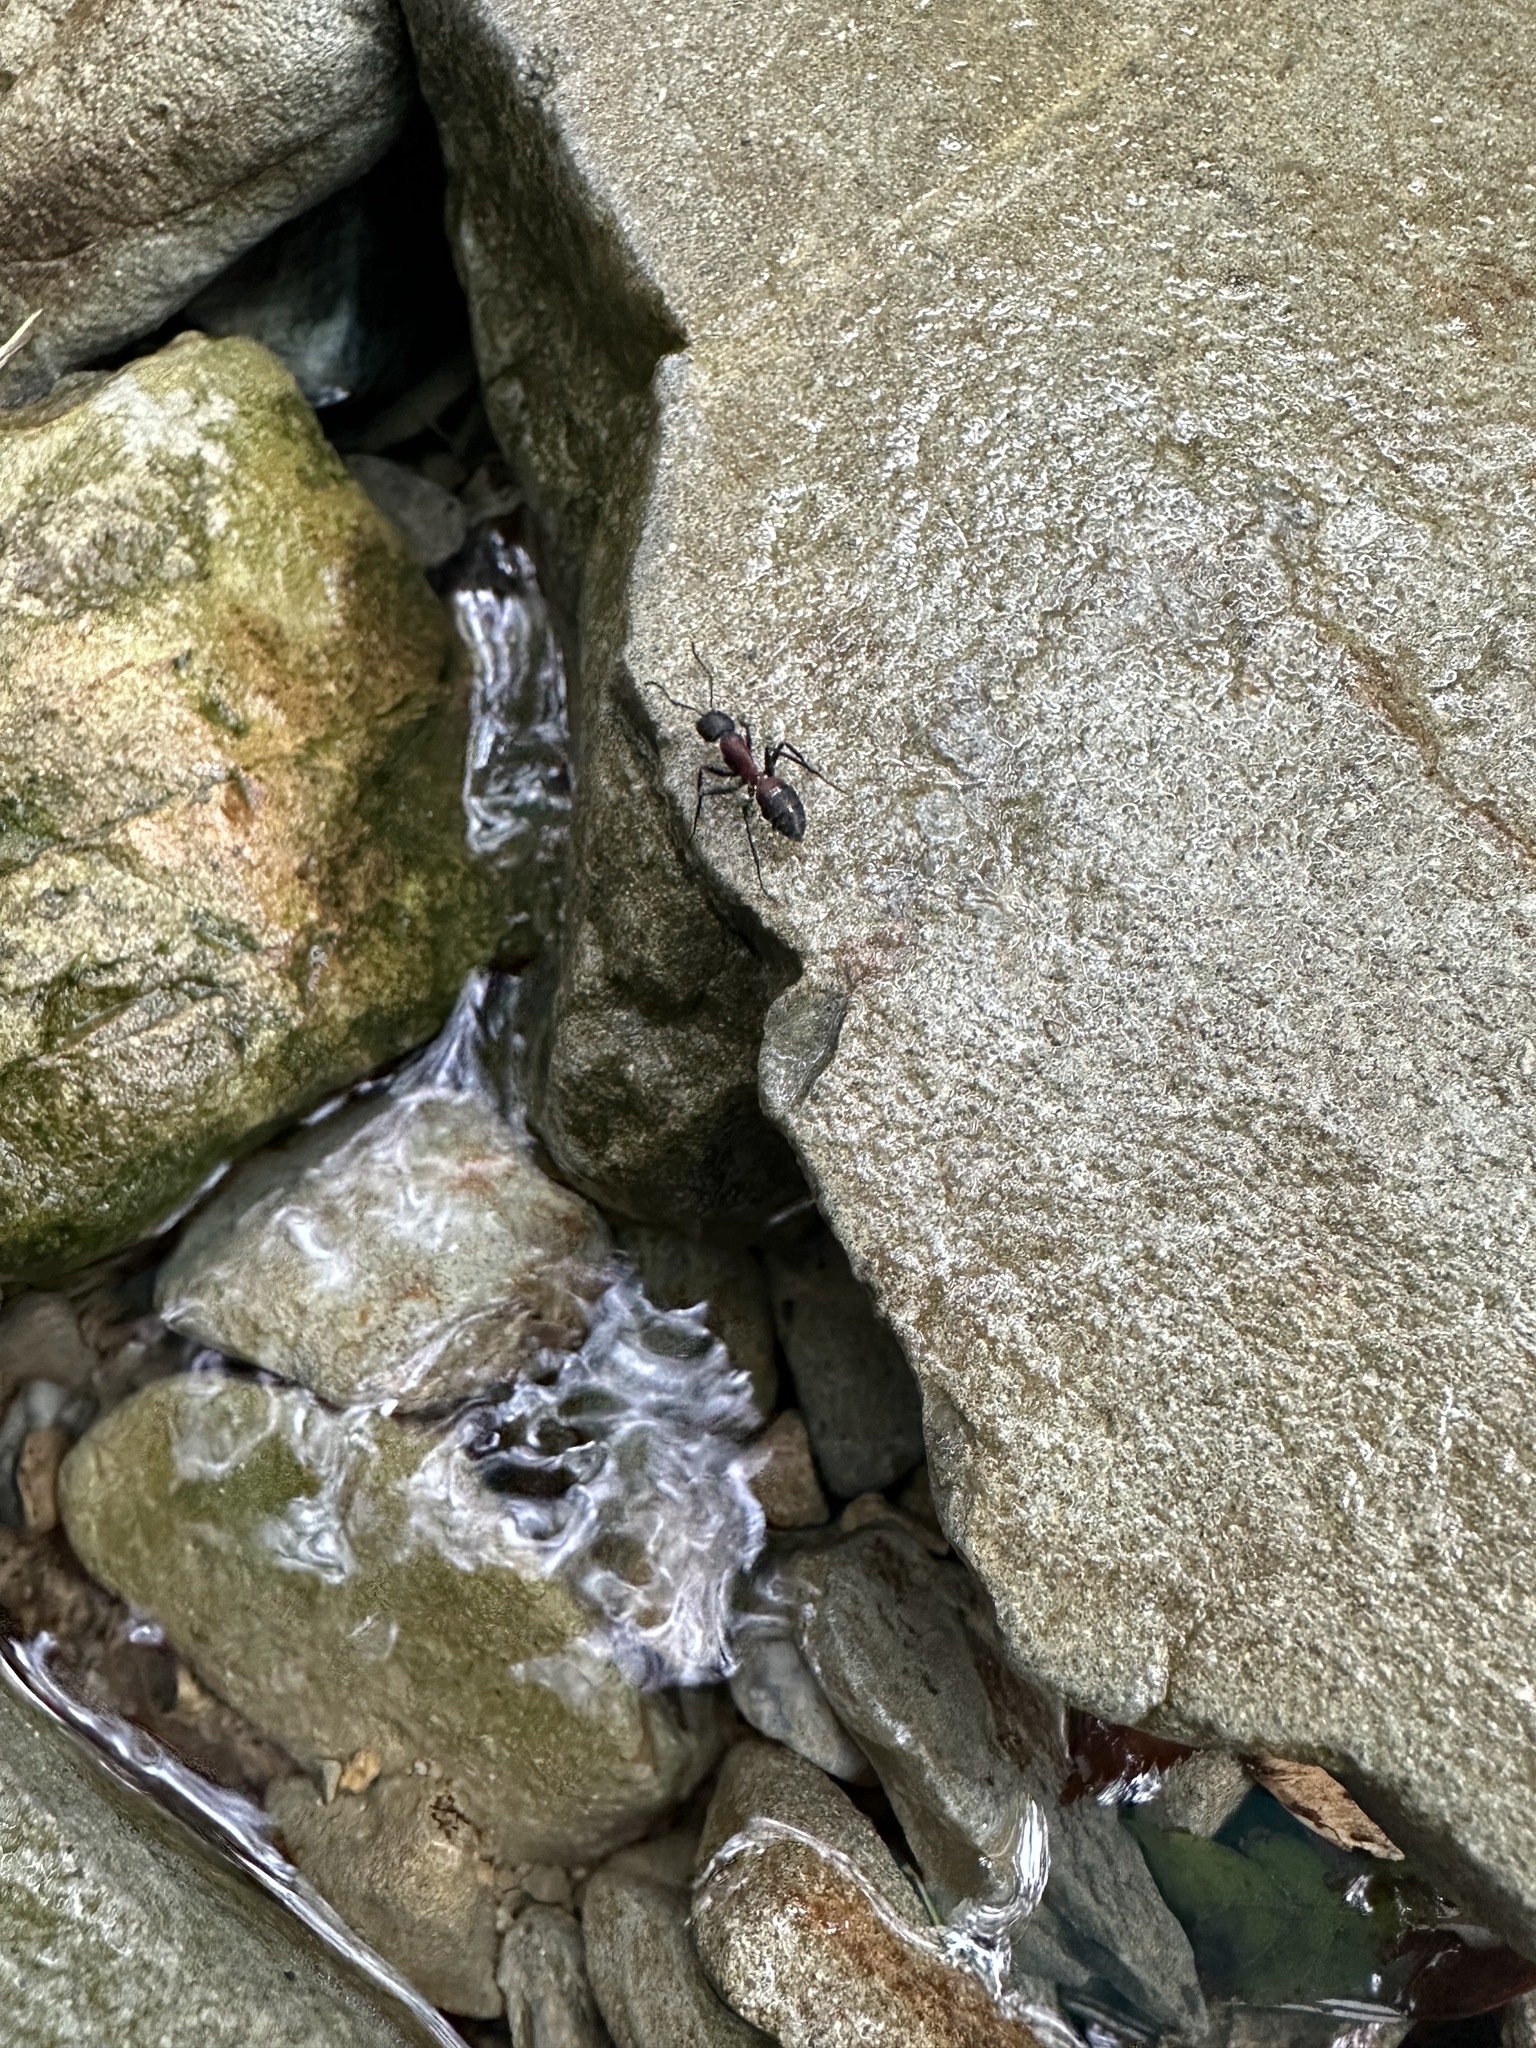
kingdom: Animalia
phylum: Arthropoda
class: Insecta
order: Hymenoptera
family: Formicidae
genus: Camponotus
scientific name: Camponotus obscuripes
